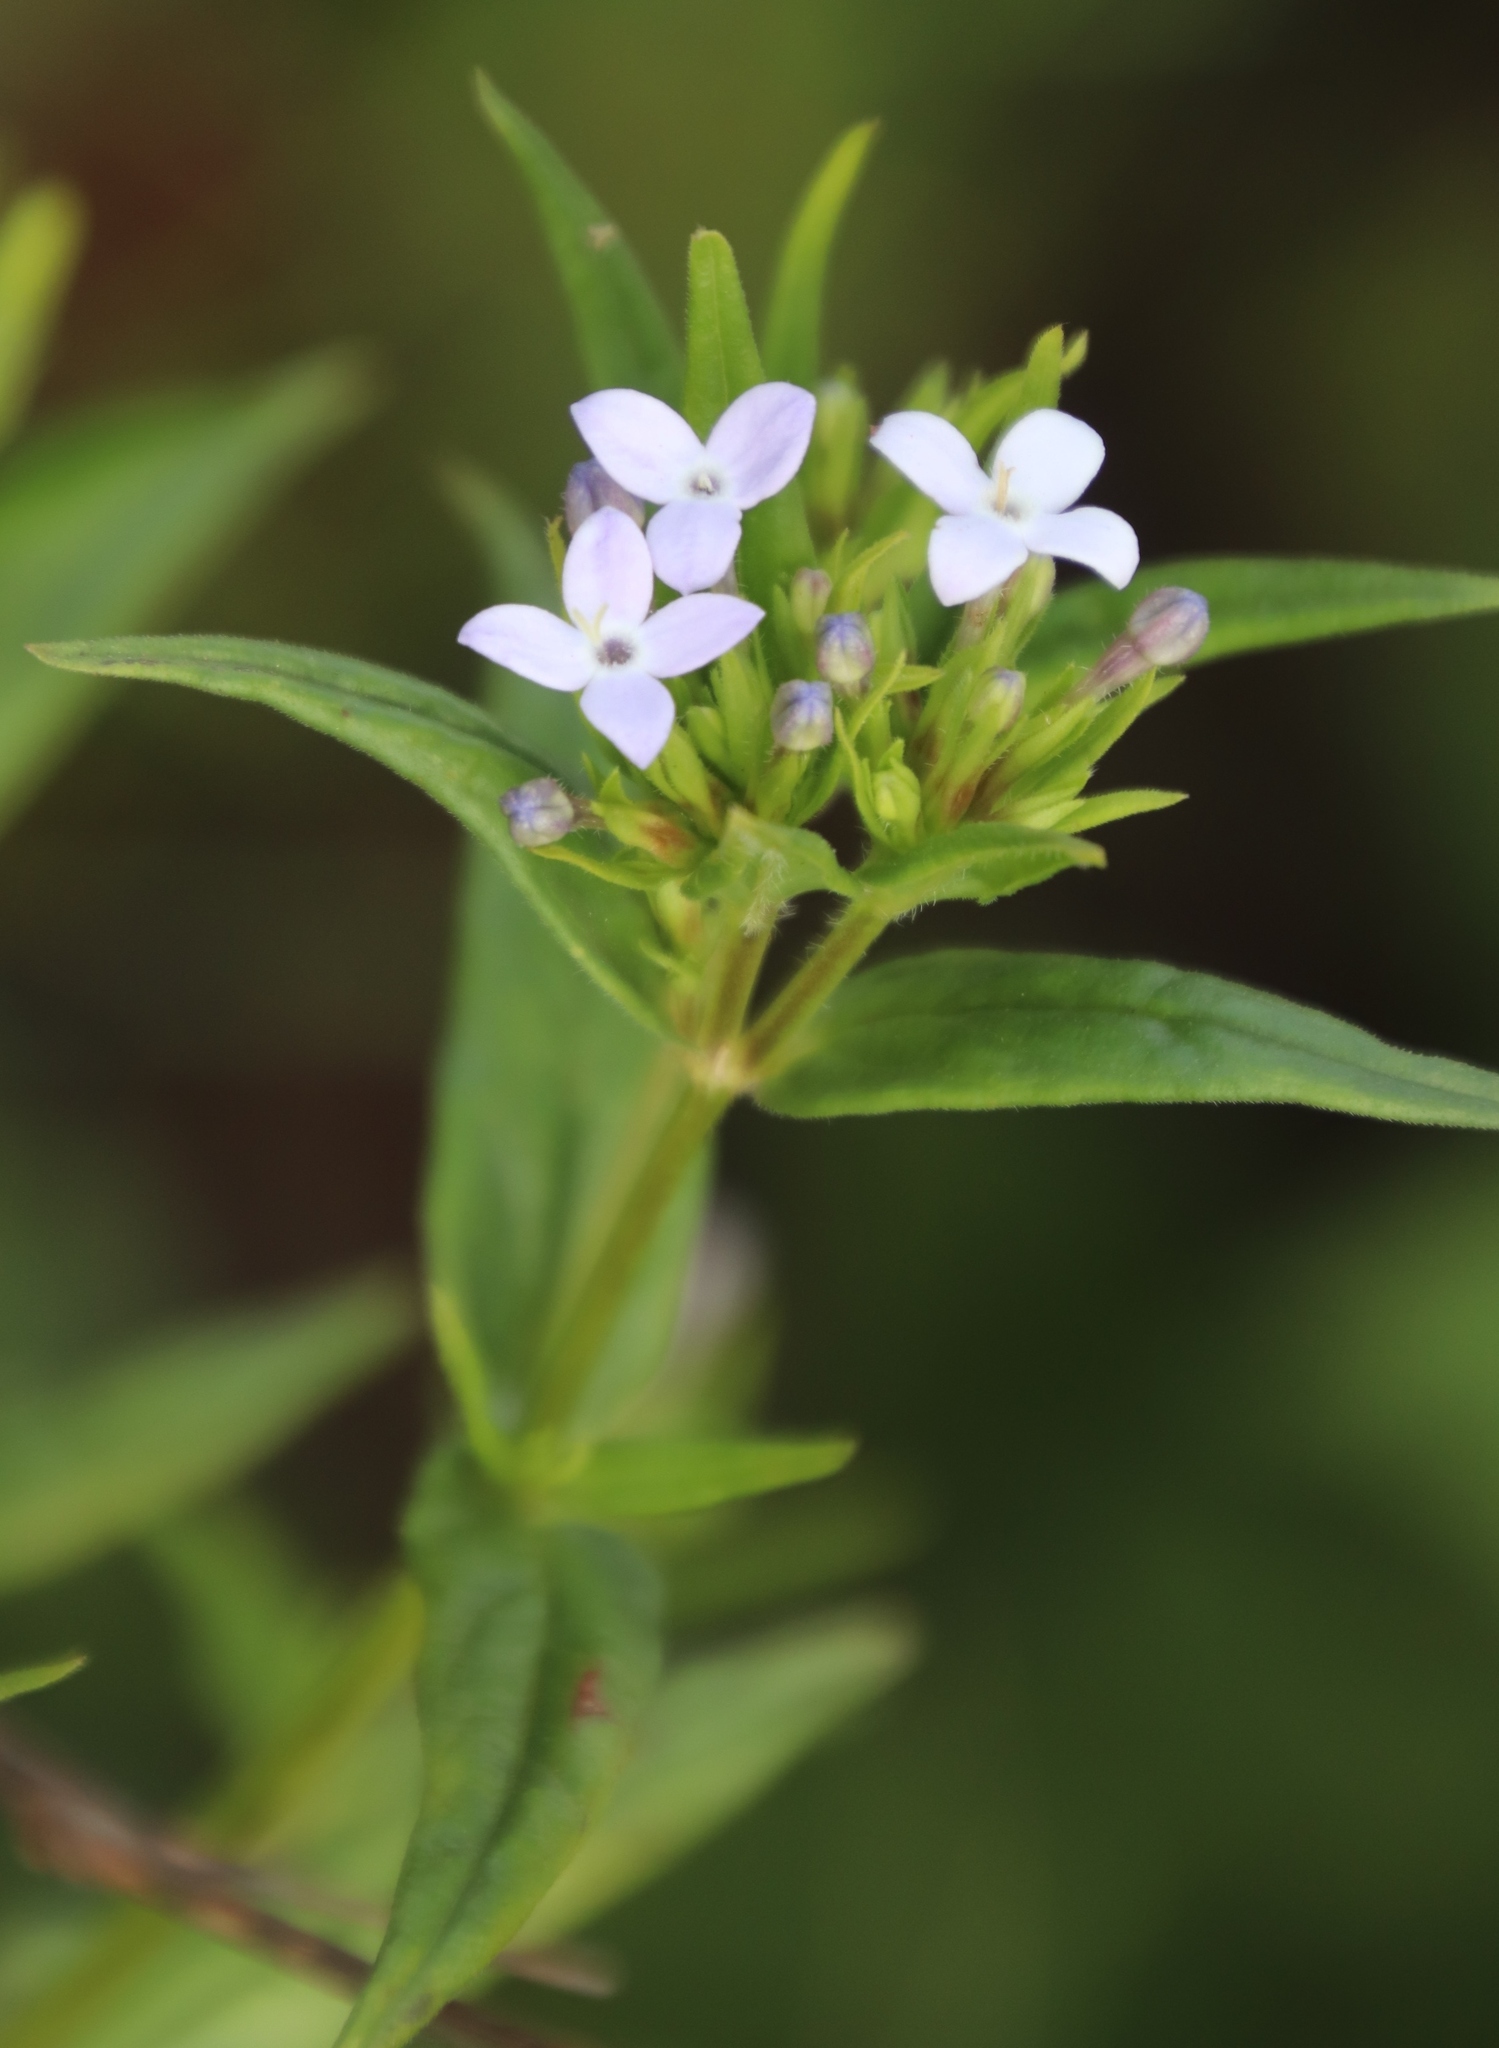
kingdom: Plantae
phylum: Tracheophyta
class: Magnoliopsida
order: Gentianales
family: Rubiaceae
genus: Conostomium
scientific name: Conostomium natalense
